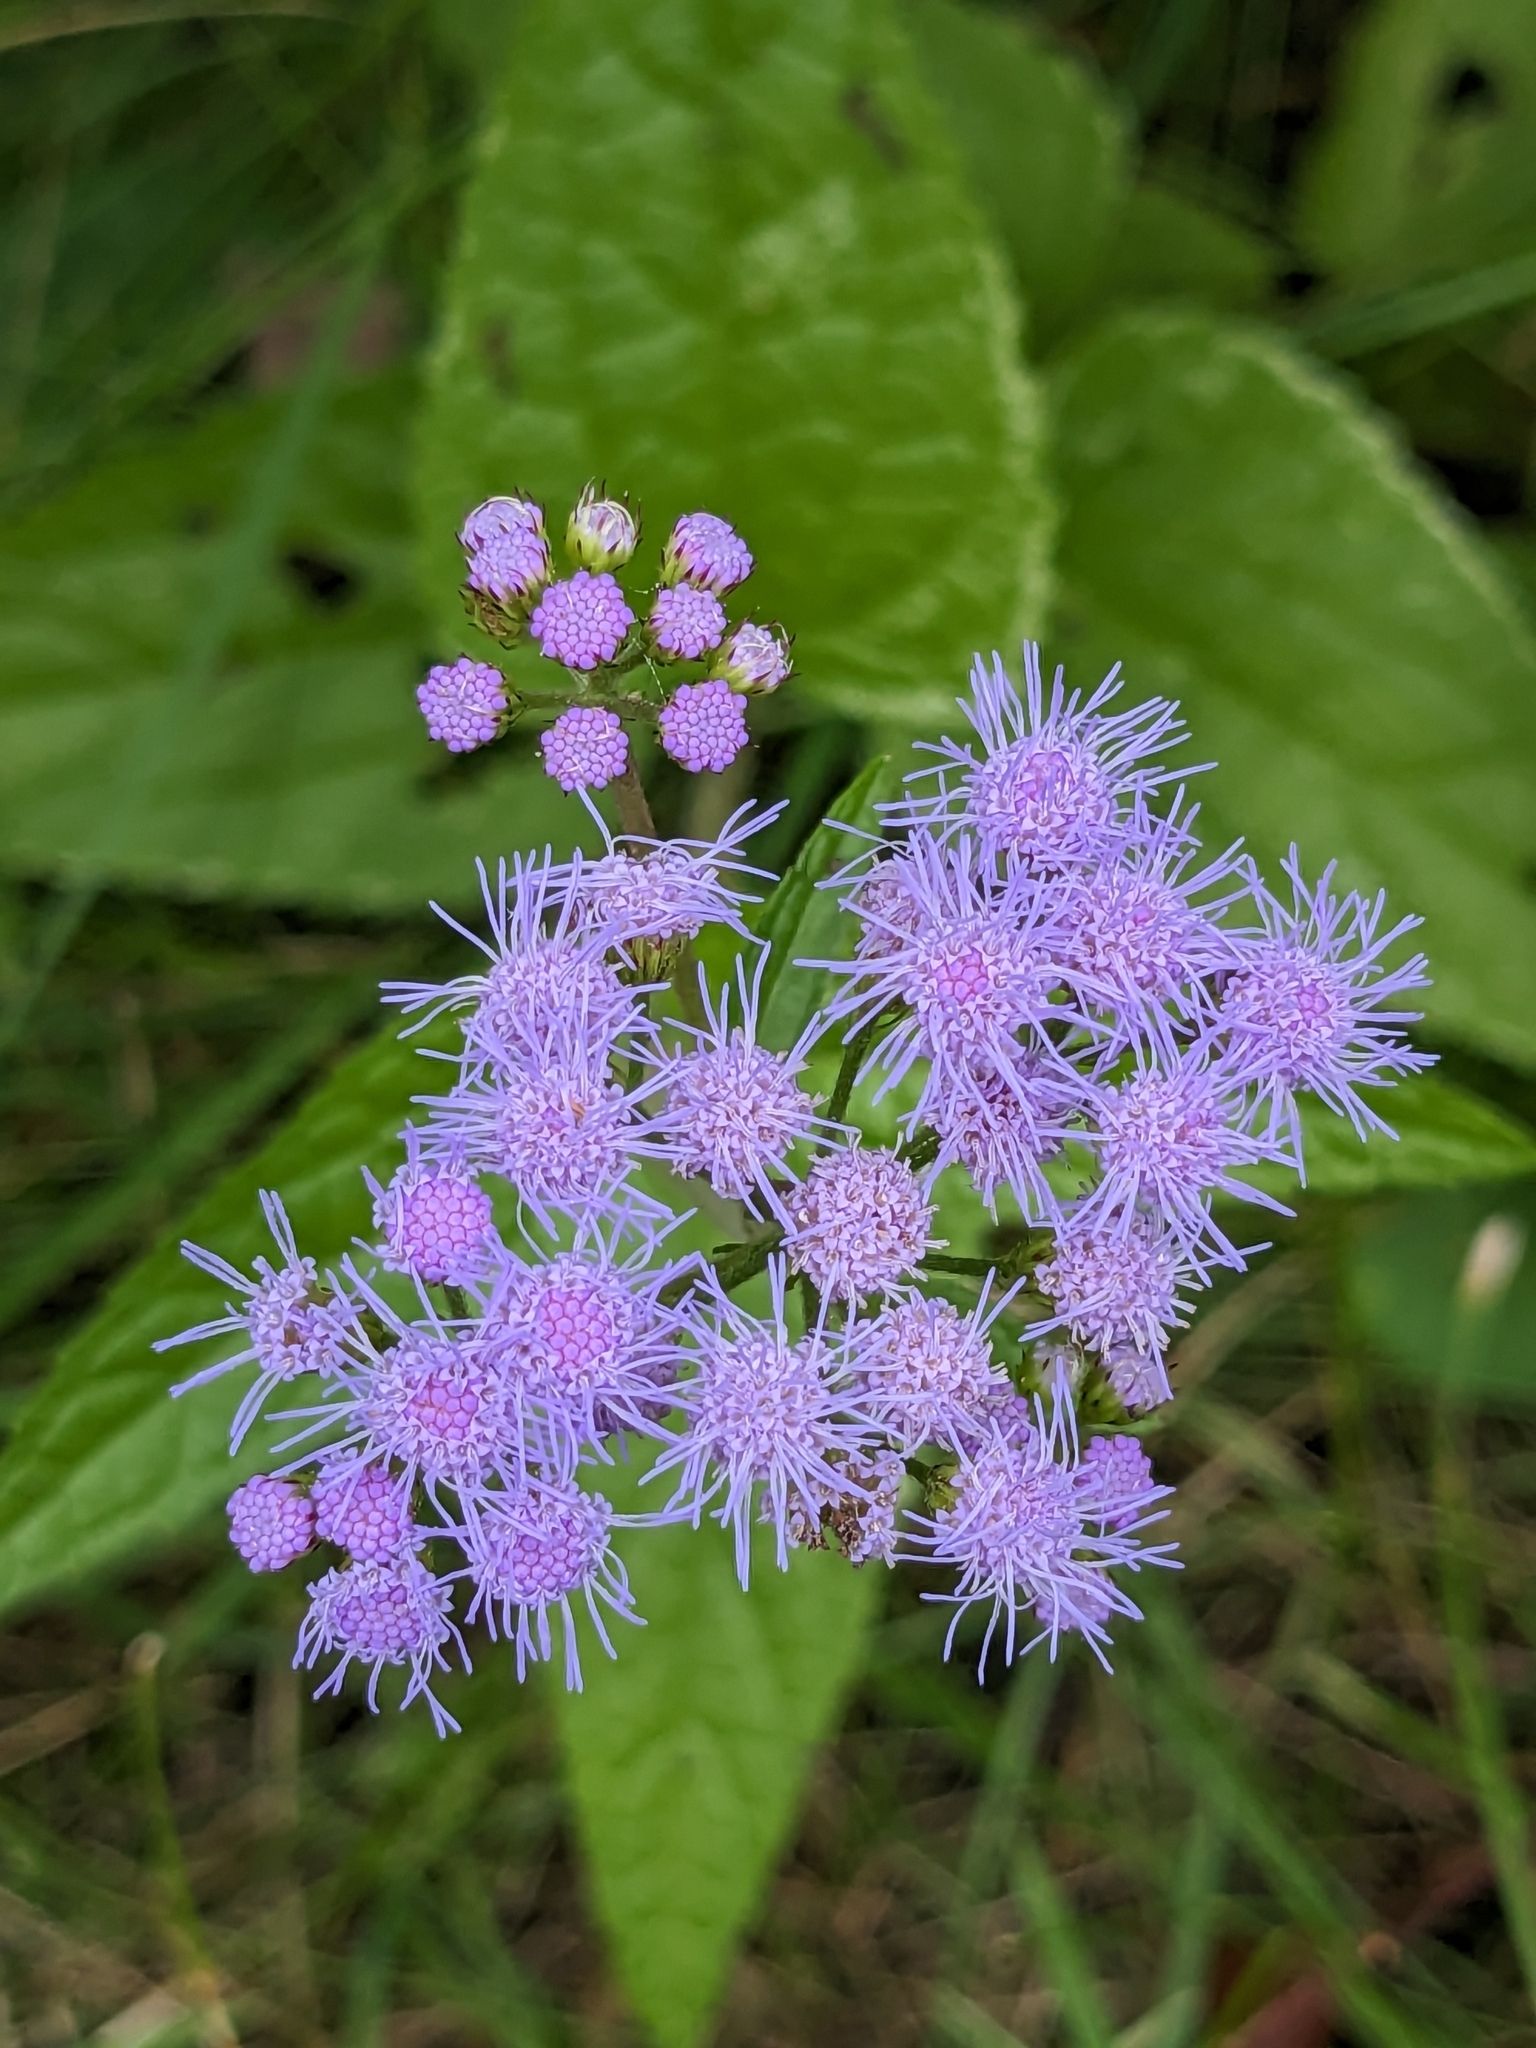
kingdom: Plantae
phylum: Tracheophyta
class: Magnoliopsida
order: Asterales
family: Asteraceae
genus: Conoclinium
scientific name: Conoclinium coelestinum
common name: Blue mistflower
